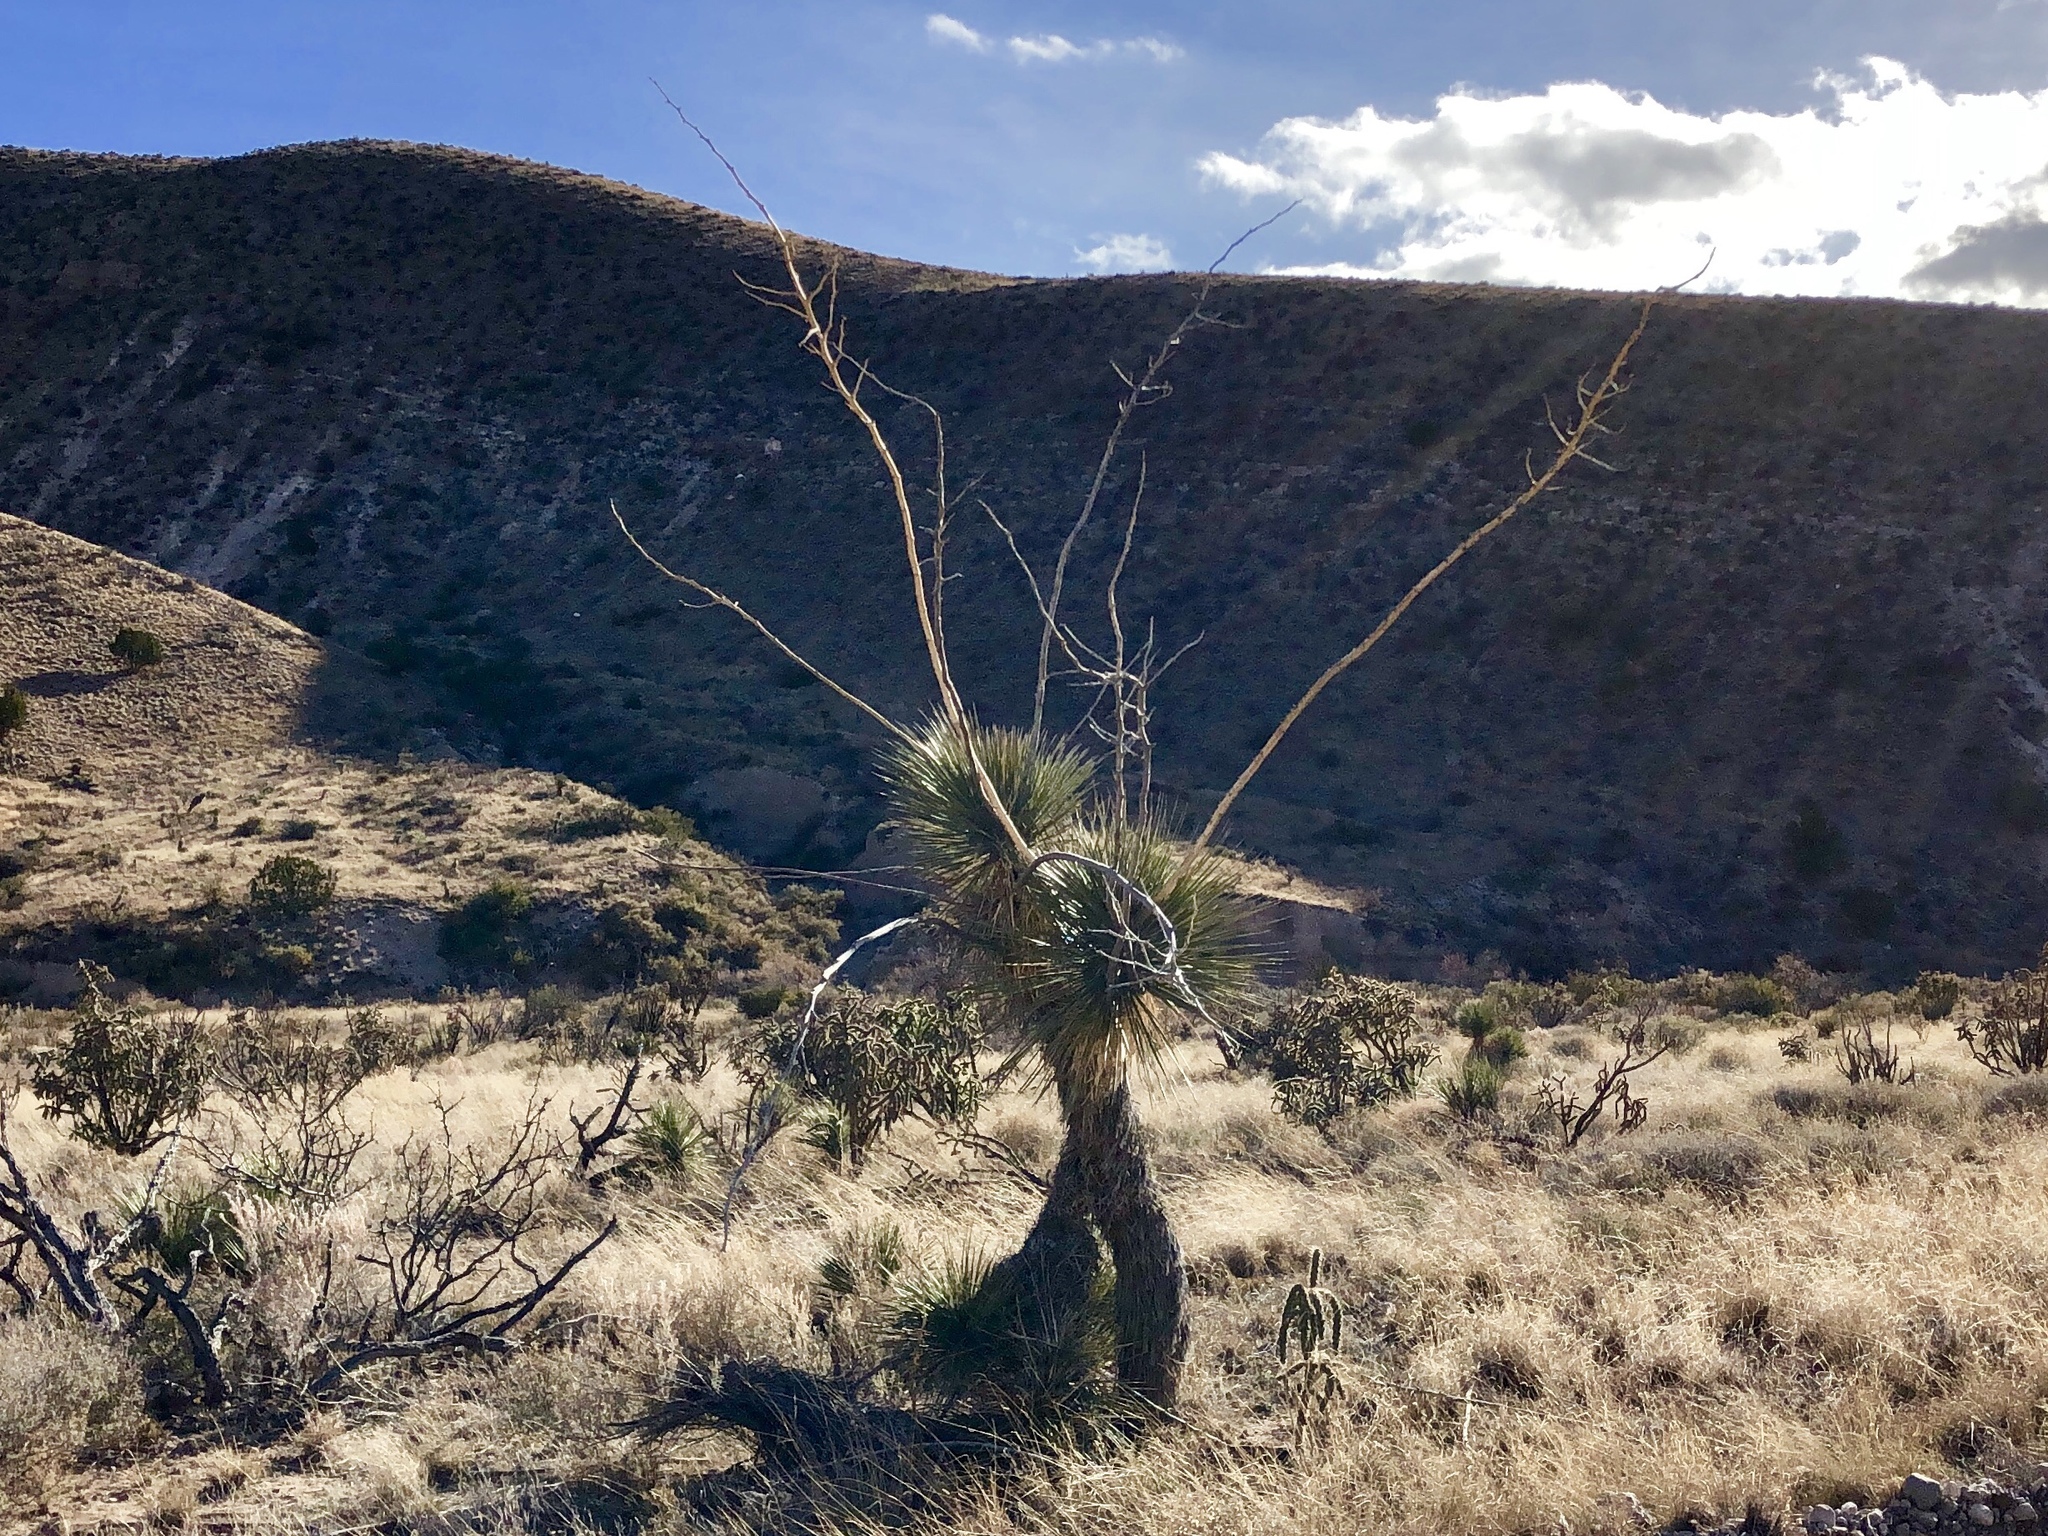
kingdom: Plantae
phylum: Tracheophyta
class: Liliopsida
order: Asparagales
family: Asparagaceae
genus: Yucca
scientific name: Yucca elata
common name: Palmella
